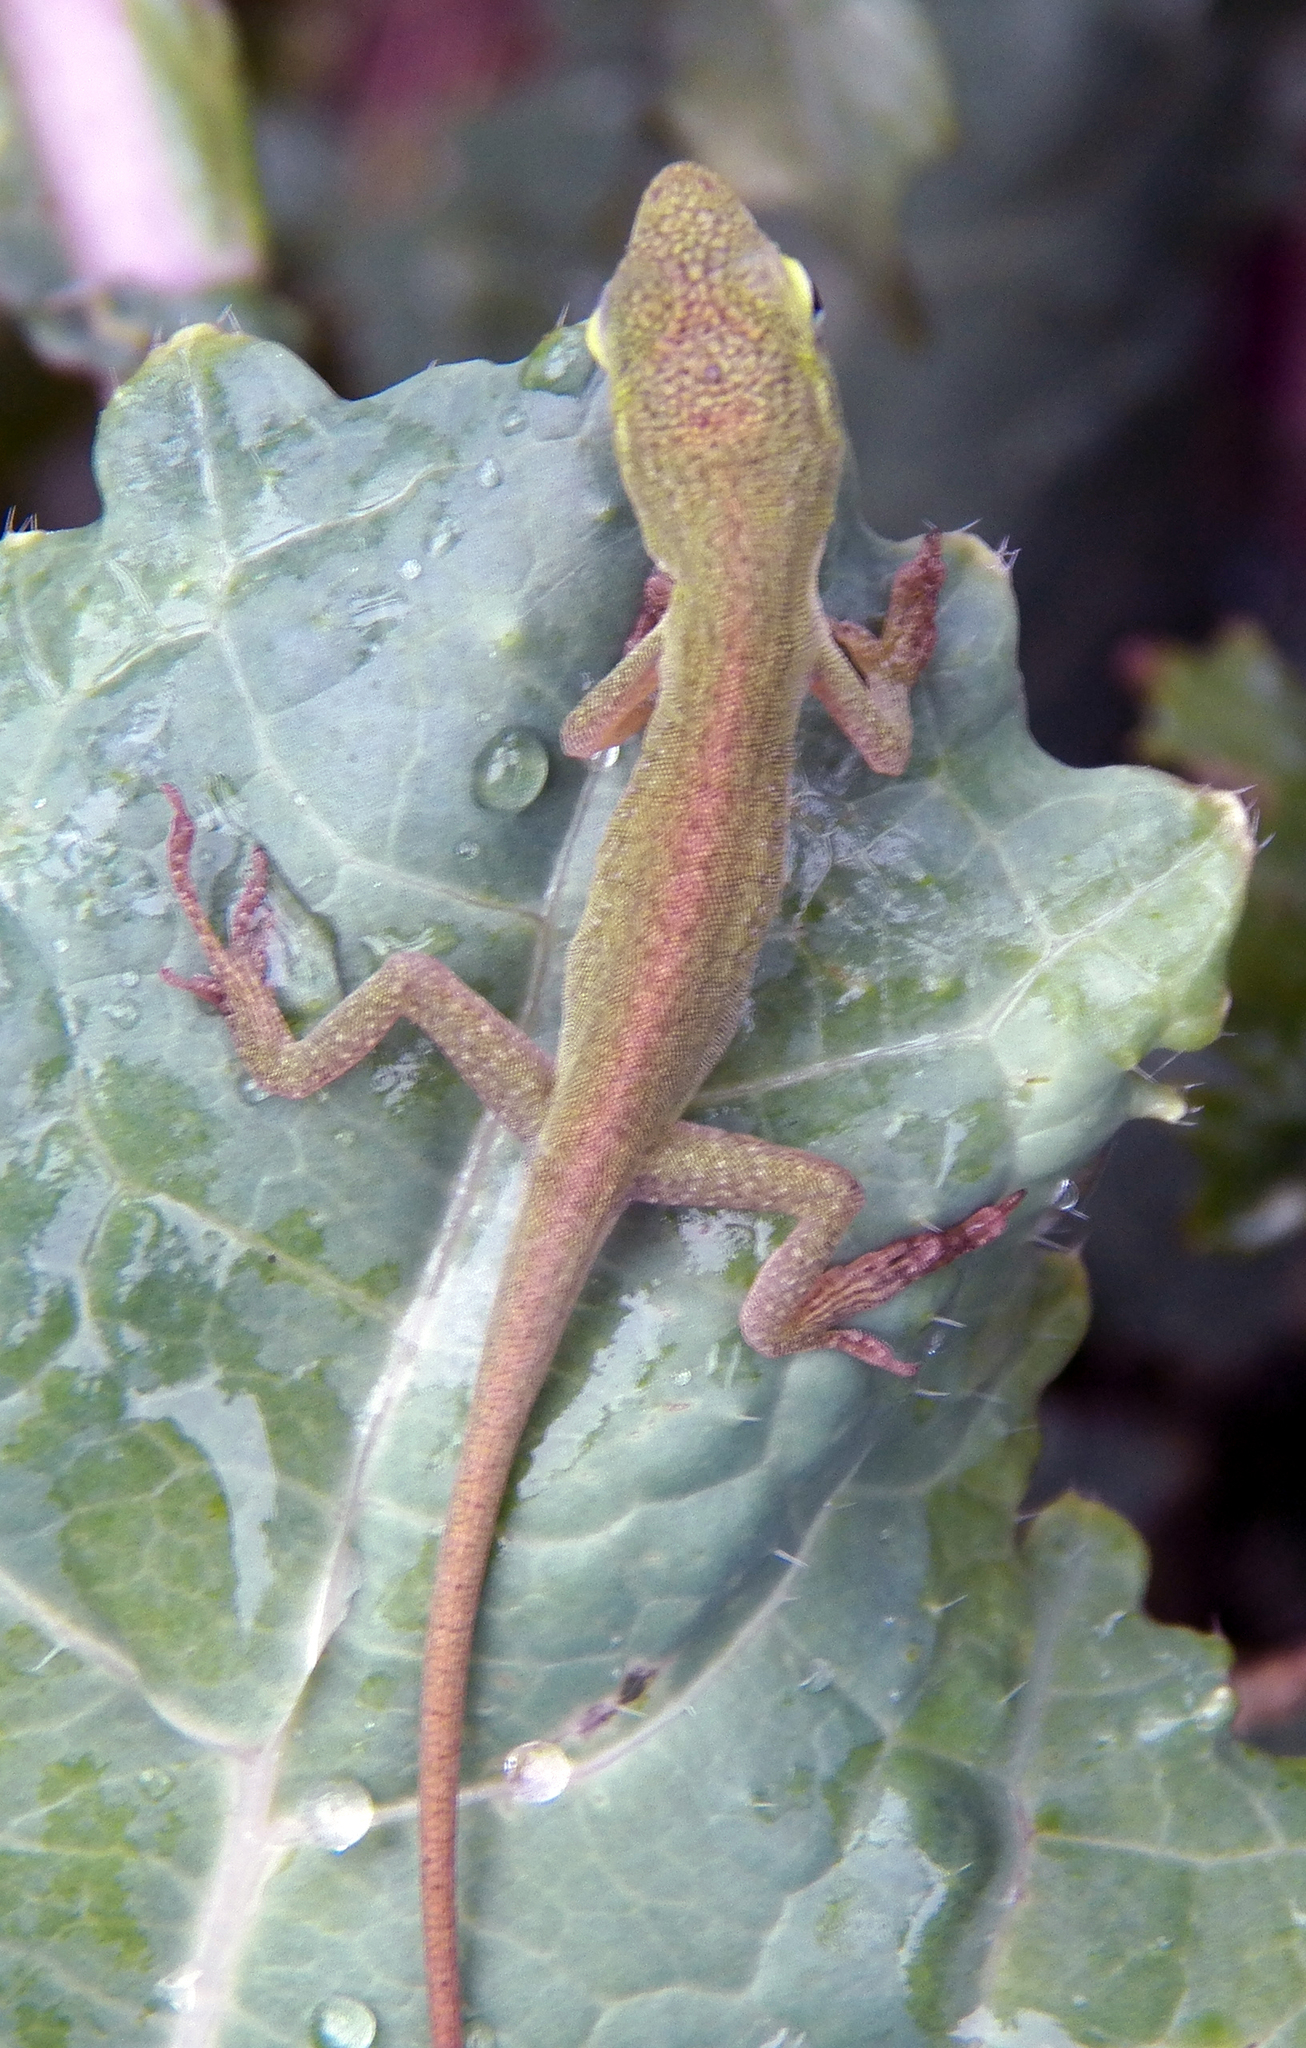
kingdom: Animalia
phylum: Chordata
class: Squamata
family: Dactyloidae
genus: Anolis
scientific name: Anolis carolinensis
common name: Green anole
